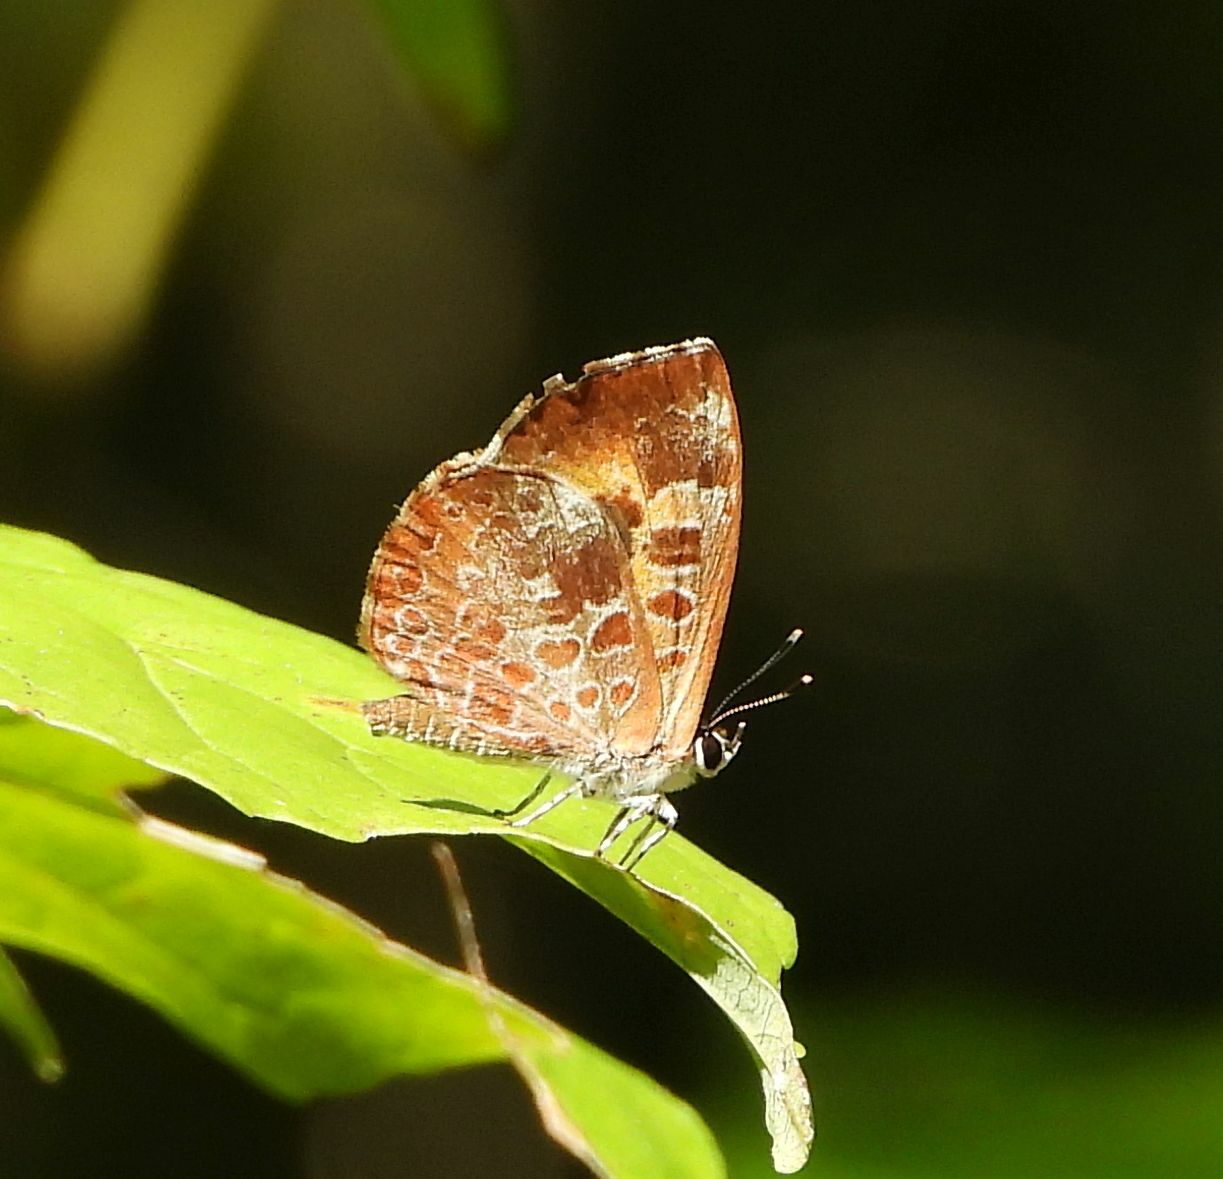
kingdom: Animalia
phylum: Arthropoda
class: Insecta
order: Lepidoptera
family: Lycaenidae
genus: Feniseca
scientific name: Feniseca tarquinius
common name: Harvester
